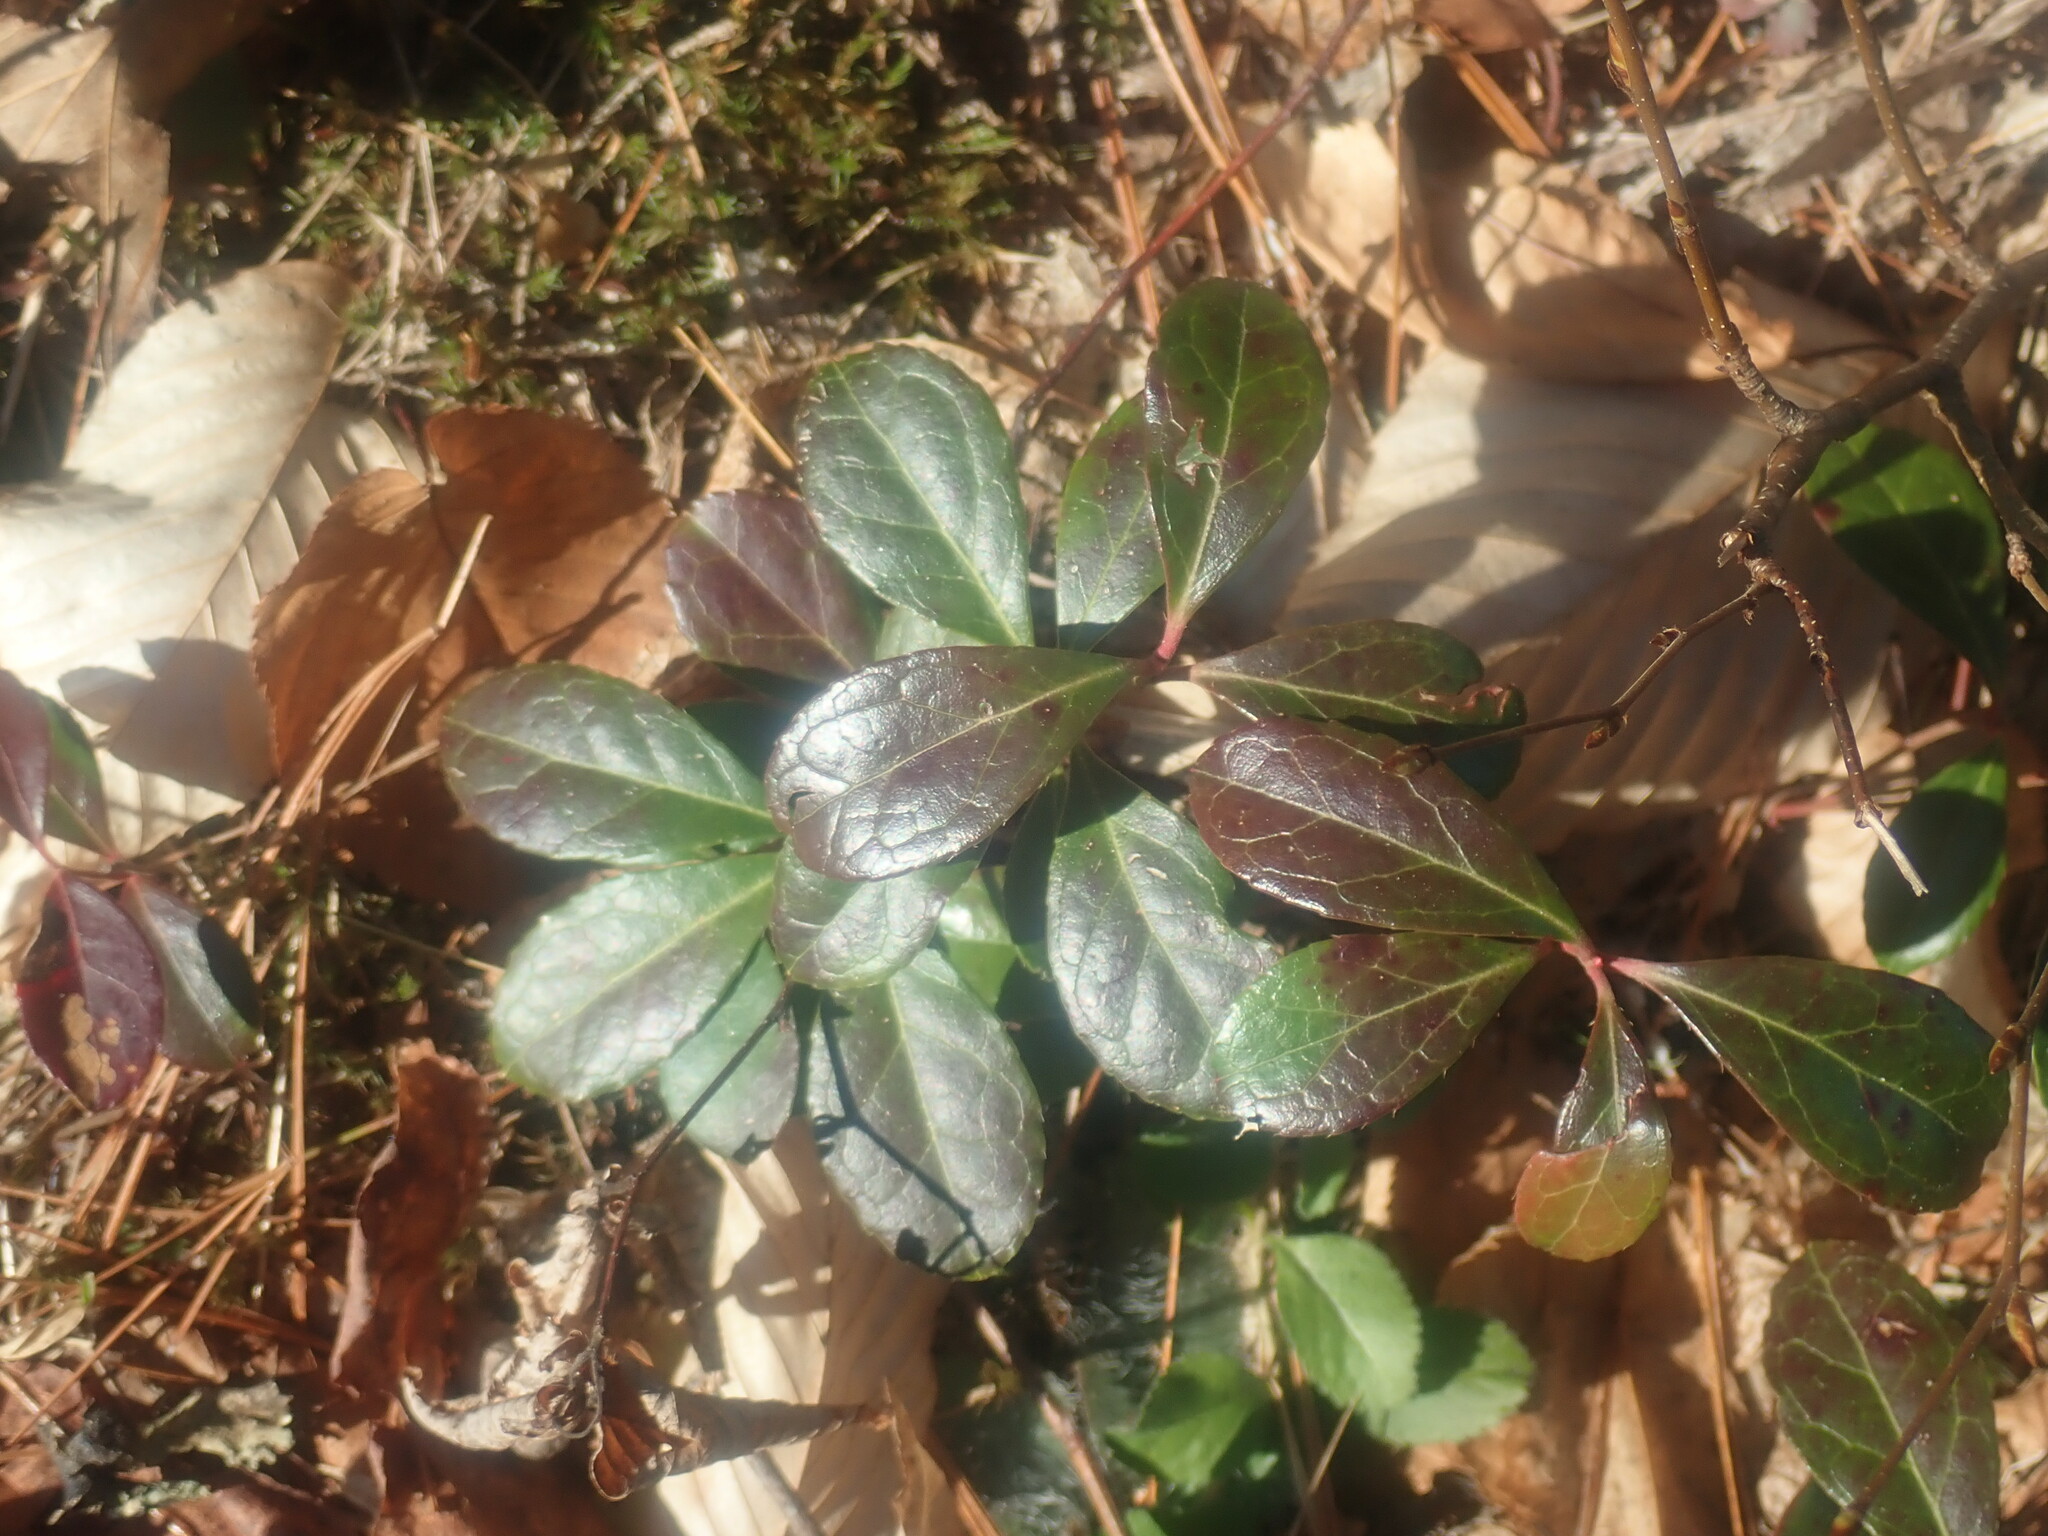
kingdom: Plantae
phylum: Tracheophyta
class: Magnoliopsida
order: Ericales
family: Ericaceae
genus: Gaultheria
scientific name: Gaultheria procumbens
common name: Checkerberry
